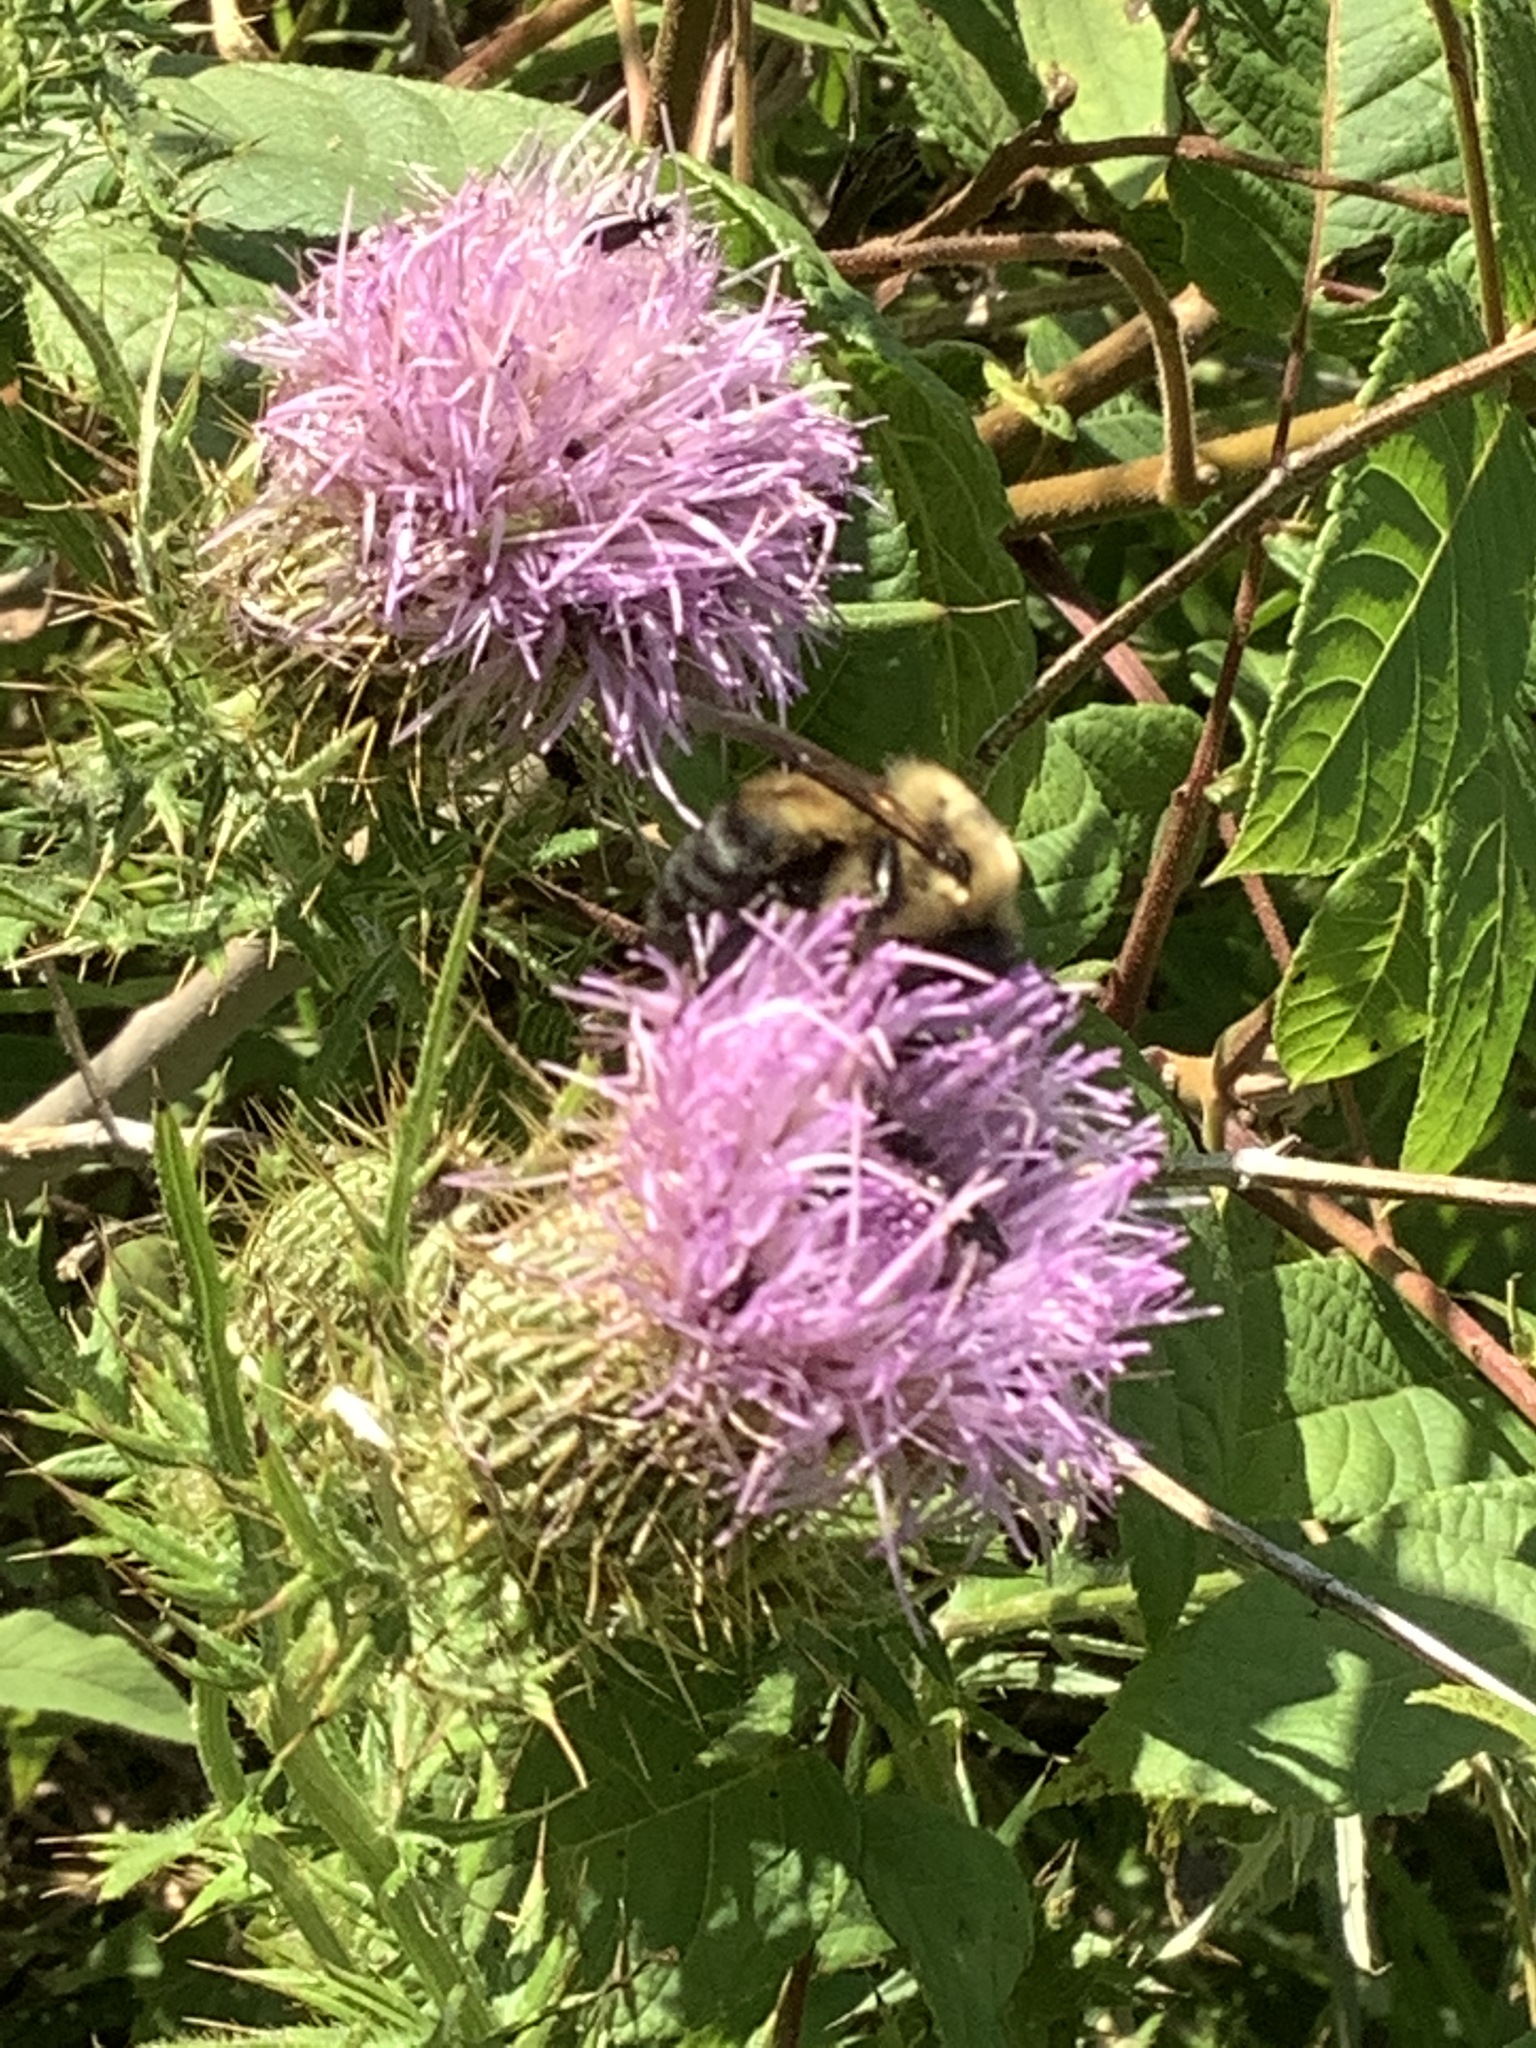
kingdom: Animalia
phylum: Arthropoda
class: Insecta
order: Hymenoptera
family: Apidae
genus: Bombus
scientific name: Bombus griseocollis
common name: Brown-belted bumble bee
